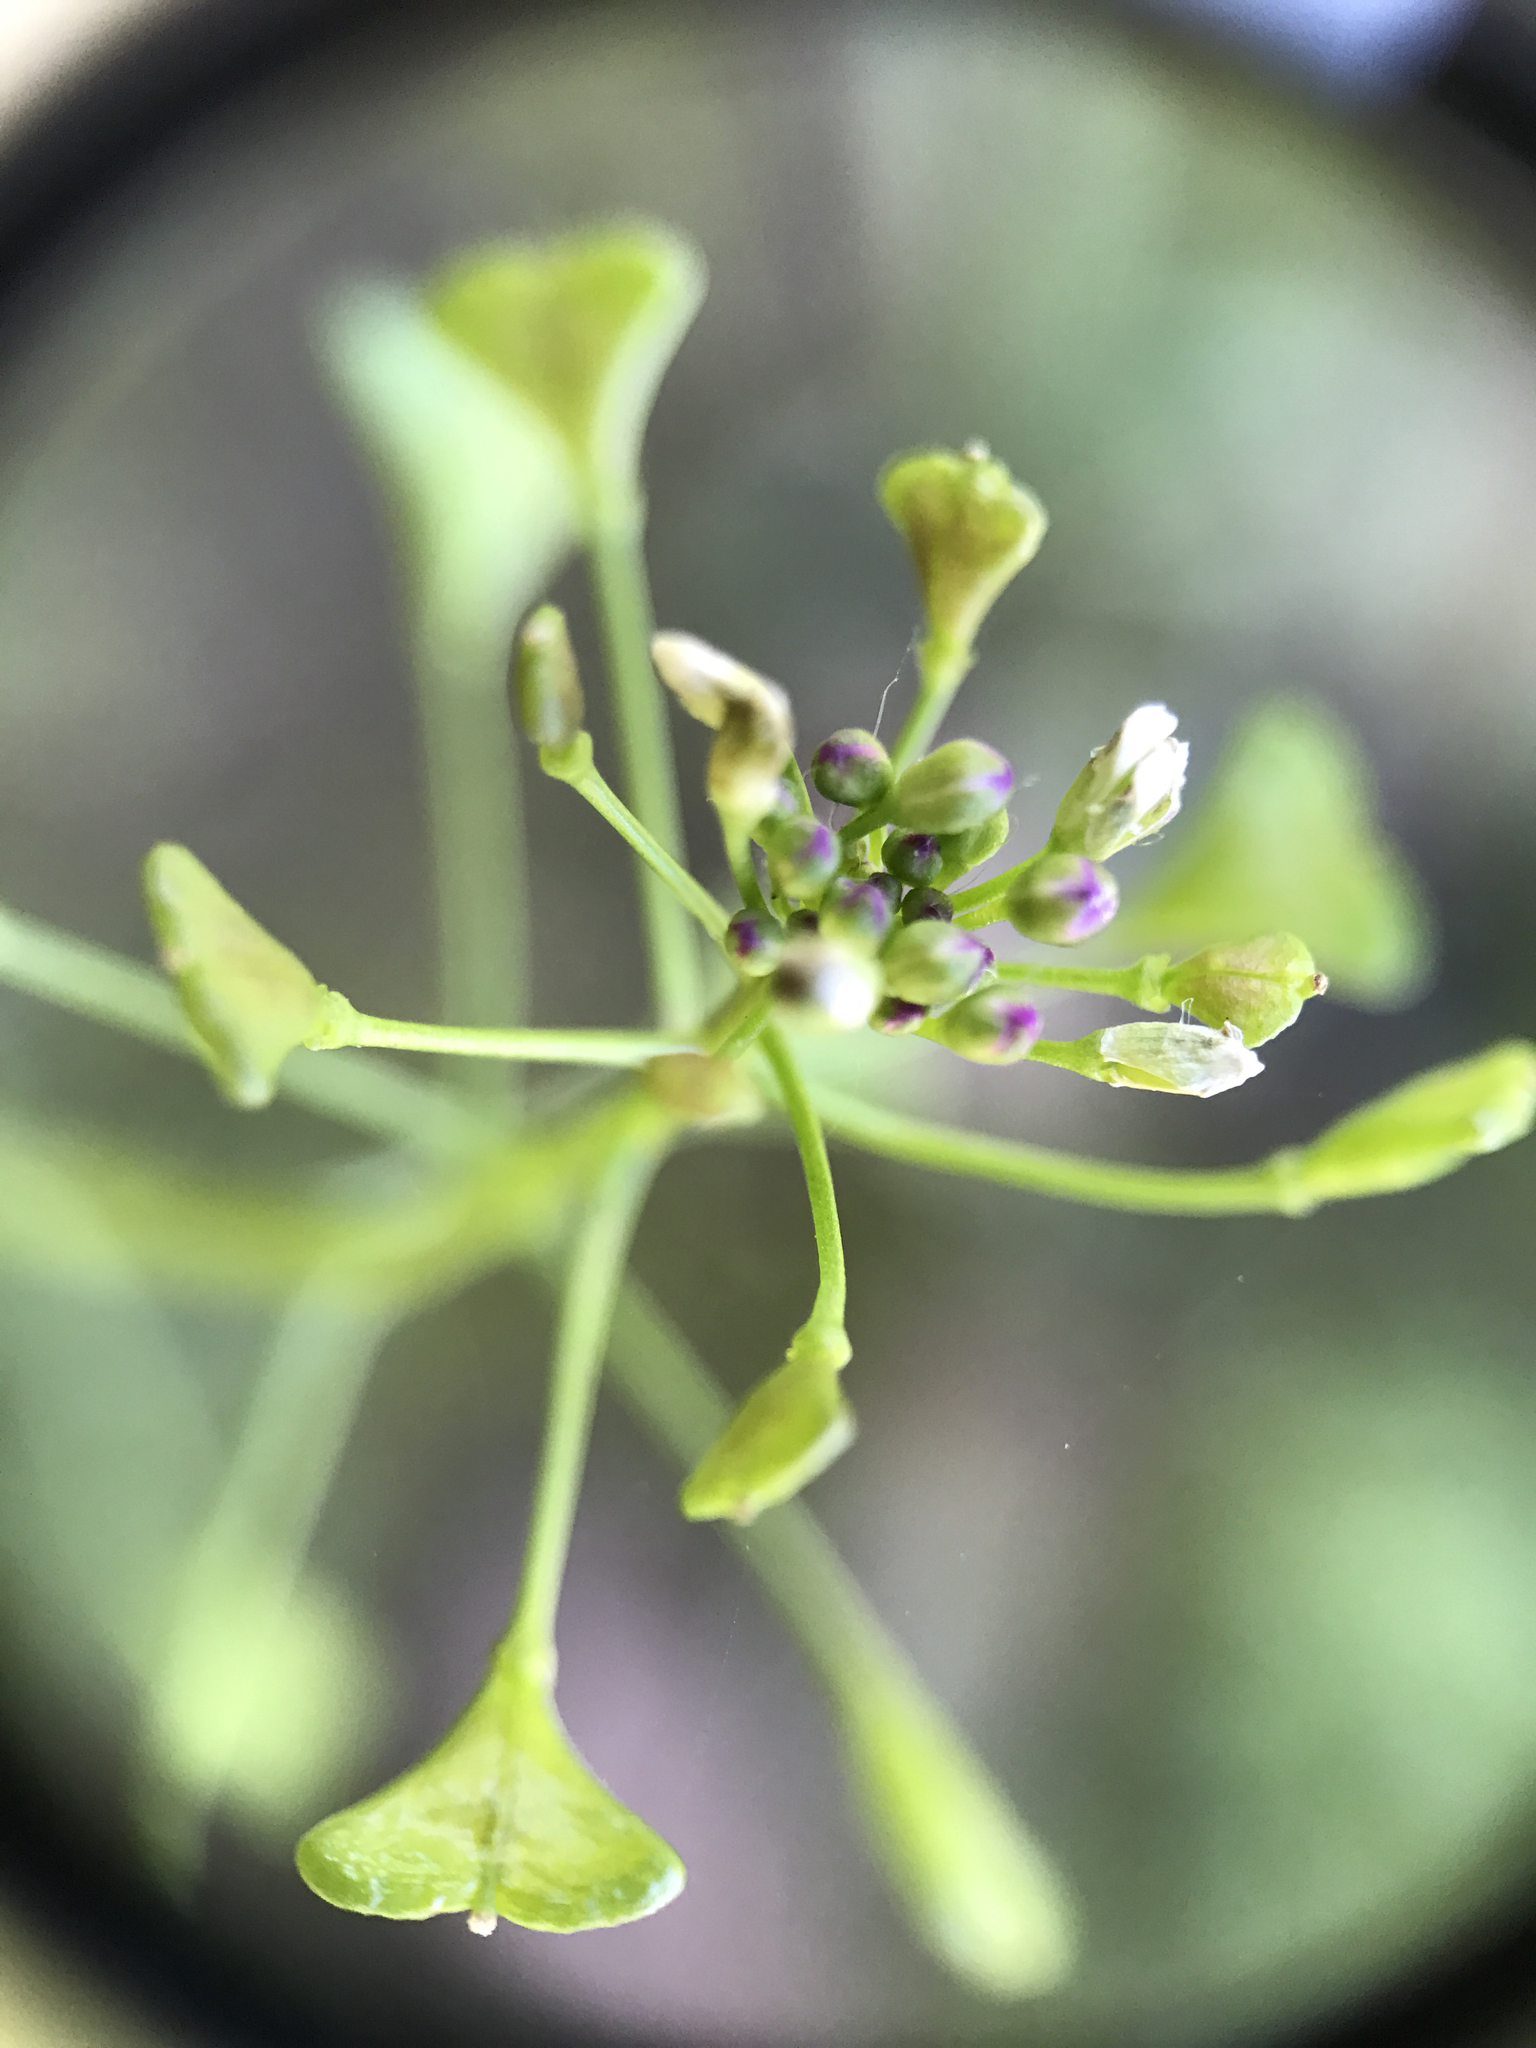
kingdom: Plantae
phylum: Tracheophyta
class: Magnoliopsida
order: Brassicales
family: Brassicaceae
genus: Capsella
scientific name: Capsella bursa-pastoris
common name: Shepherd's purse
